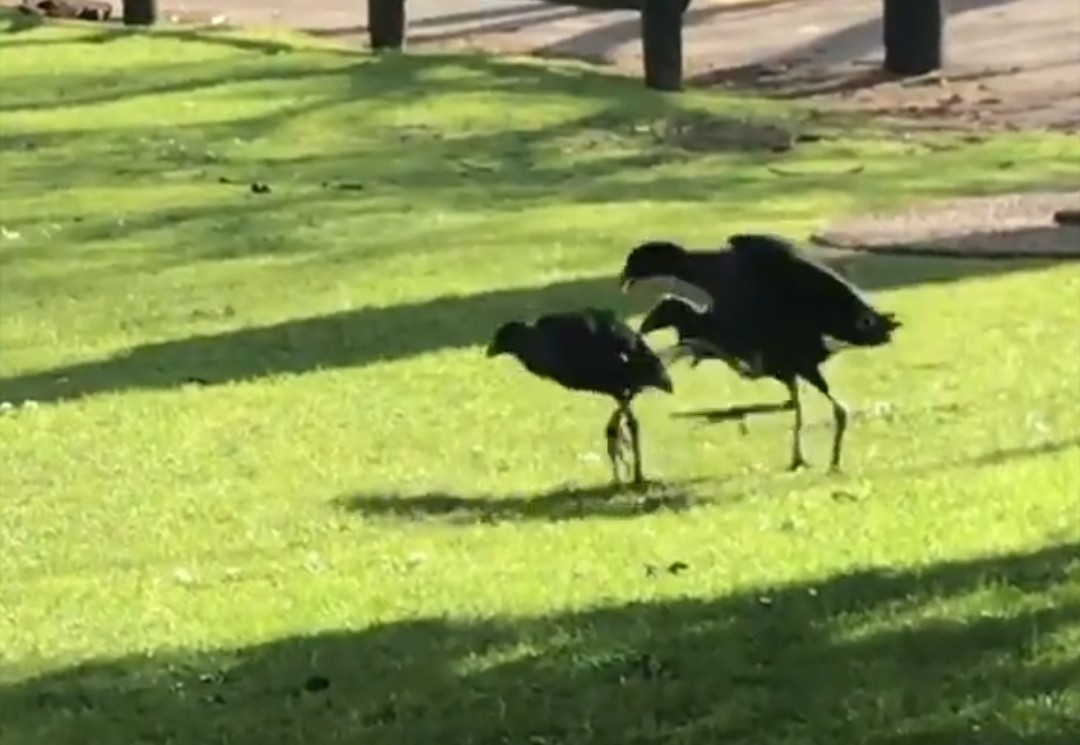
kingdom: Animalia
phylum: Chordata
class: Aves
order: Gruiformes
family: Rallidae
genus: Porphyrio
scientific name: Porphyrio melanotus
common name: Australasian swamphen
